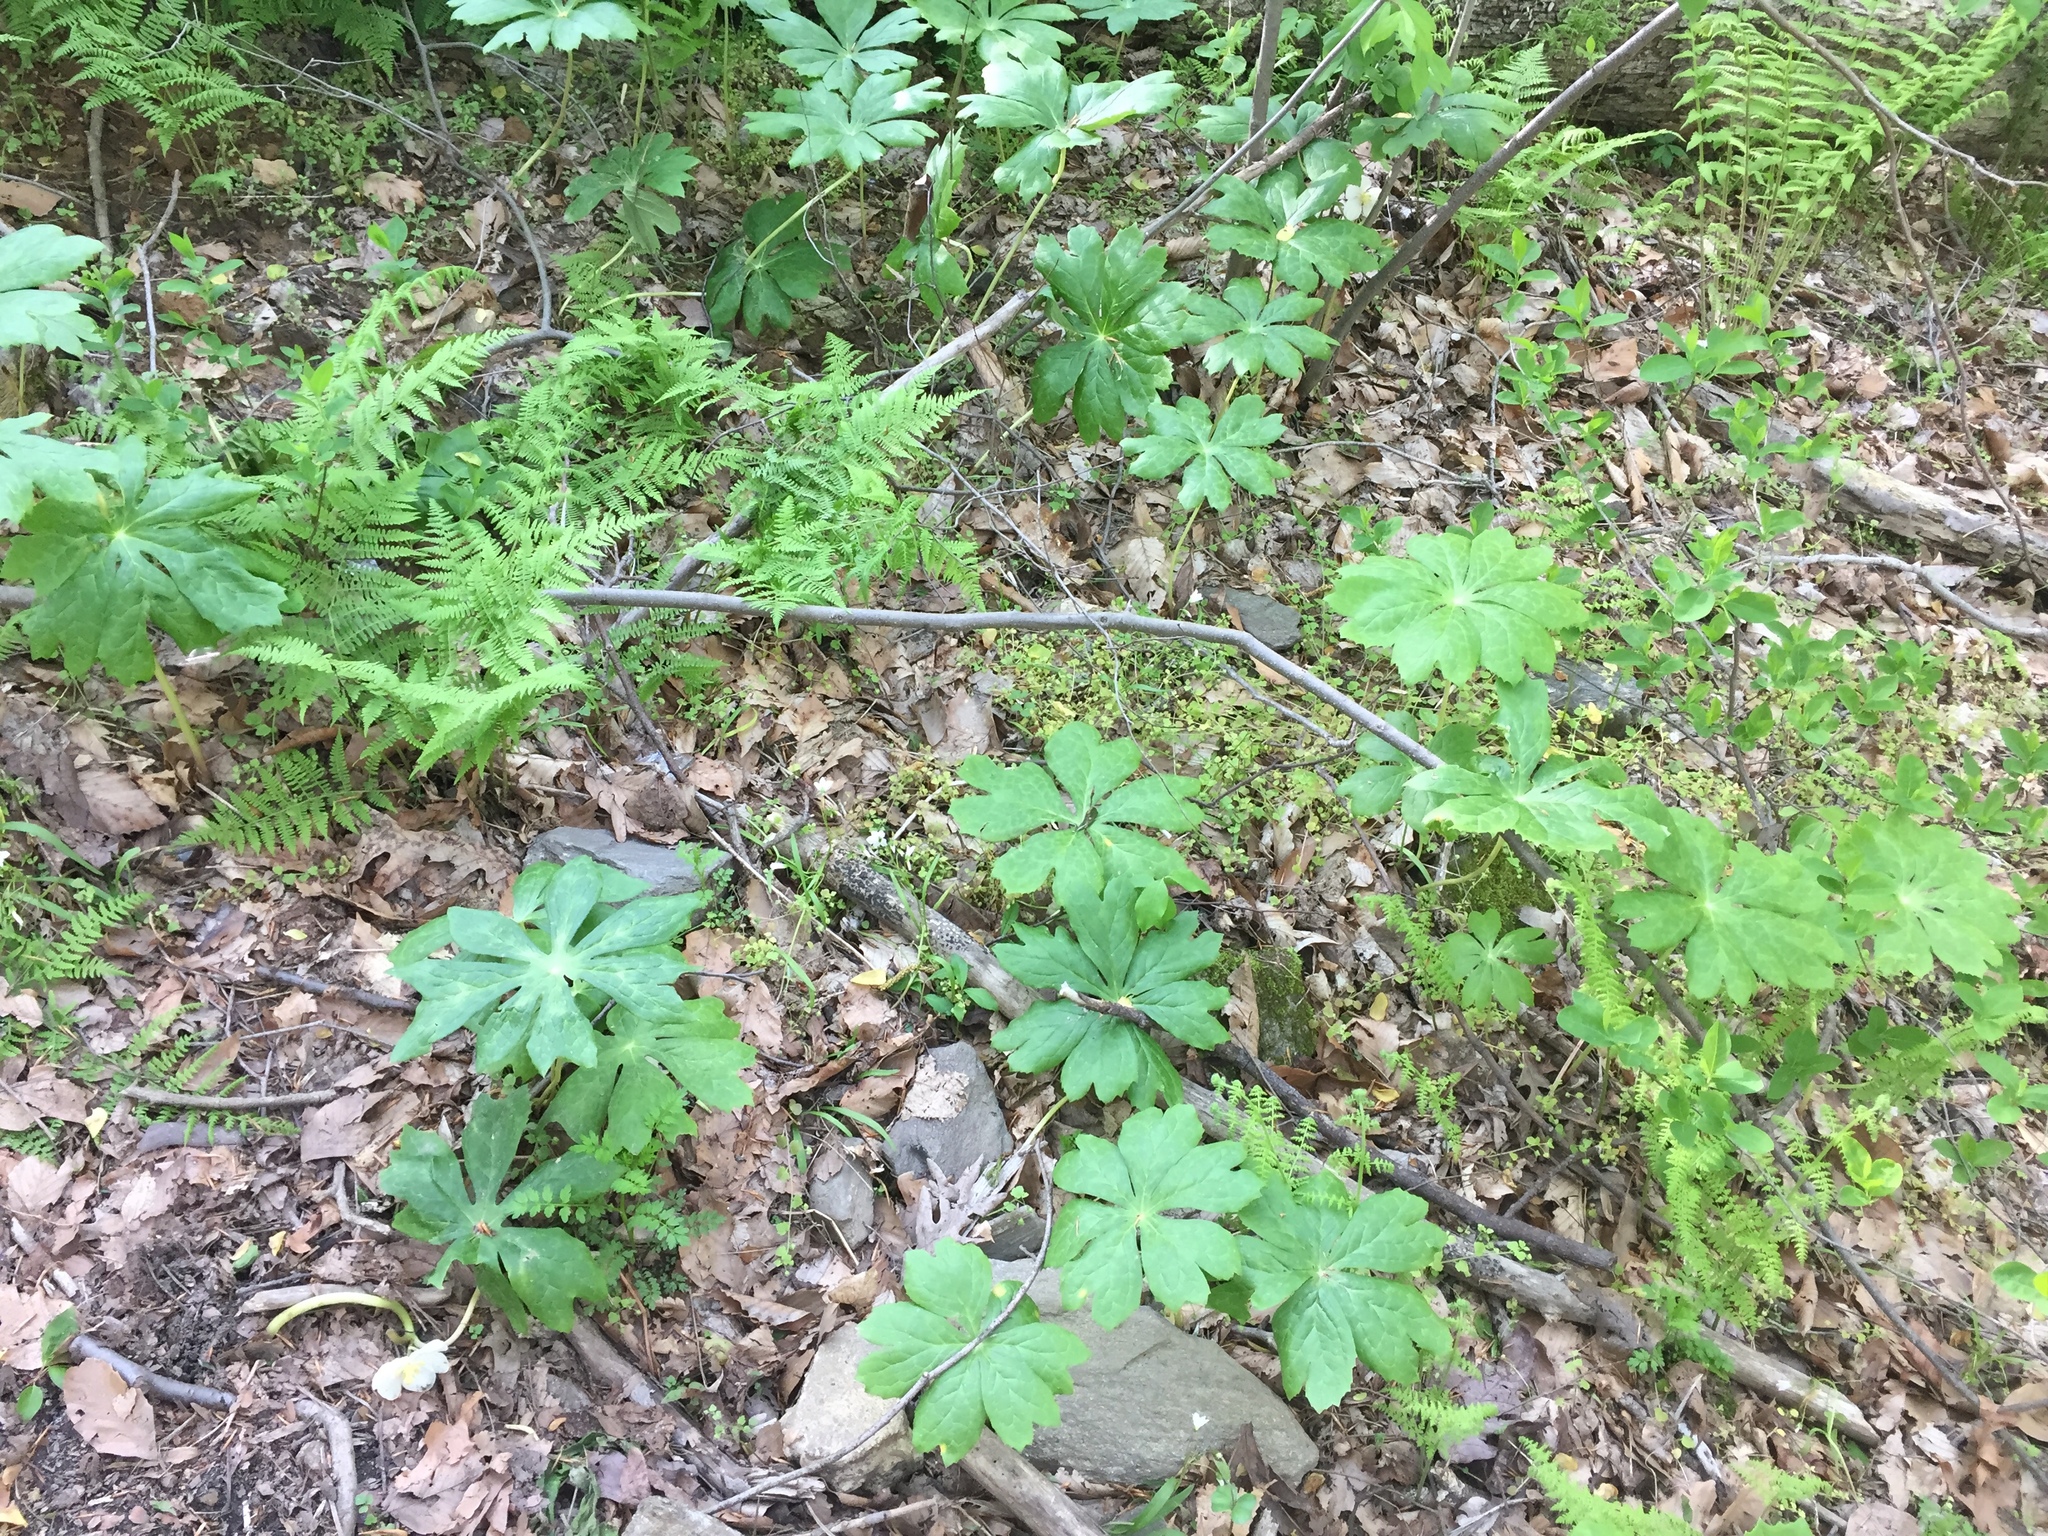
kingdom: Plantae
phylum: Tracheophyta
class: Magnoliopsida
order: Ranunculales
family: Berberidaceae
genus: Podophyllum
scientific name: Podophyllum peltatum
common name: Wild mandrake
